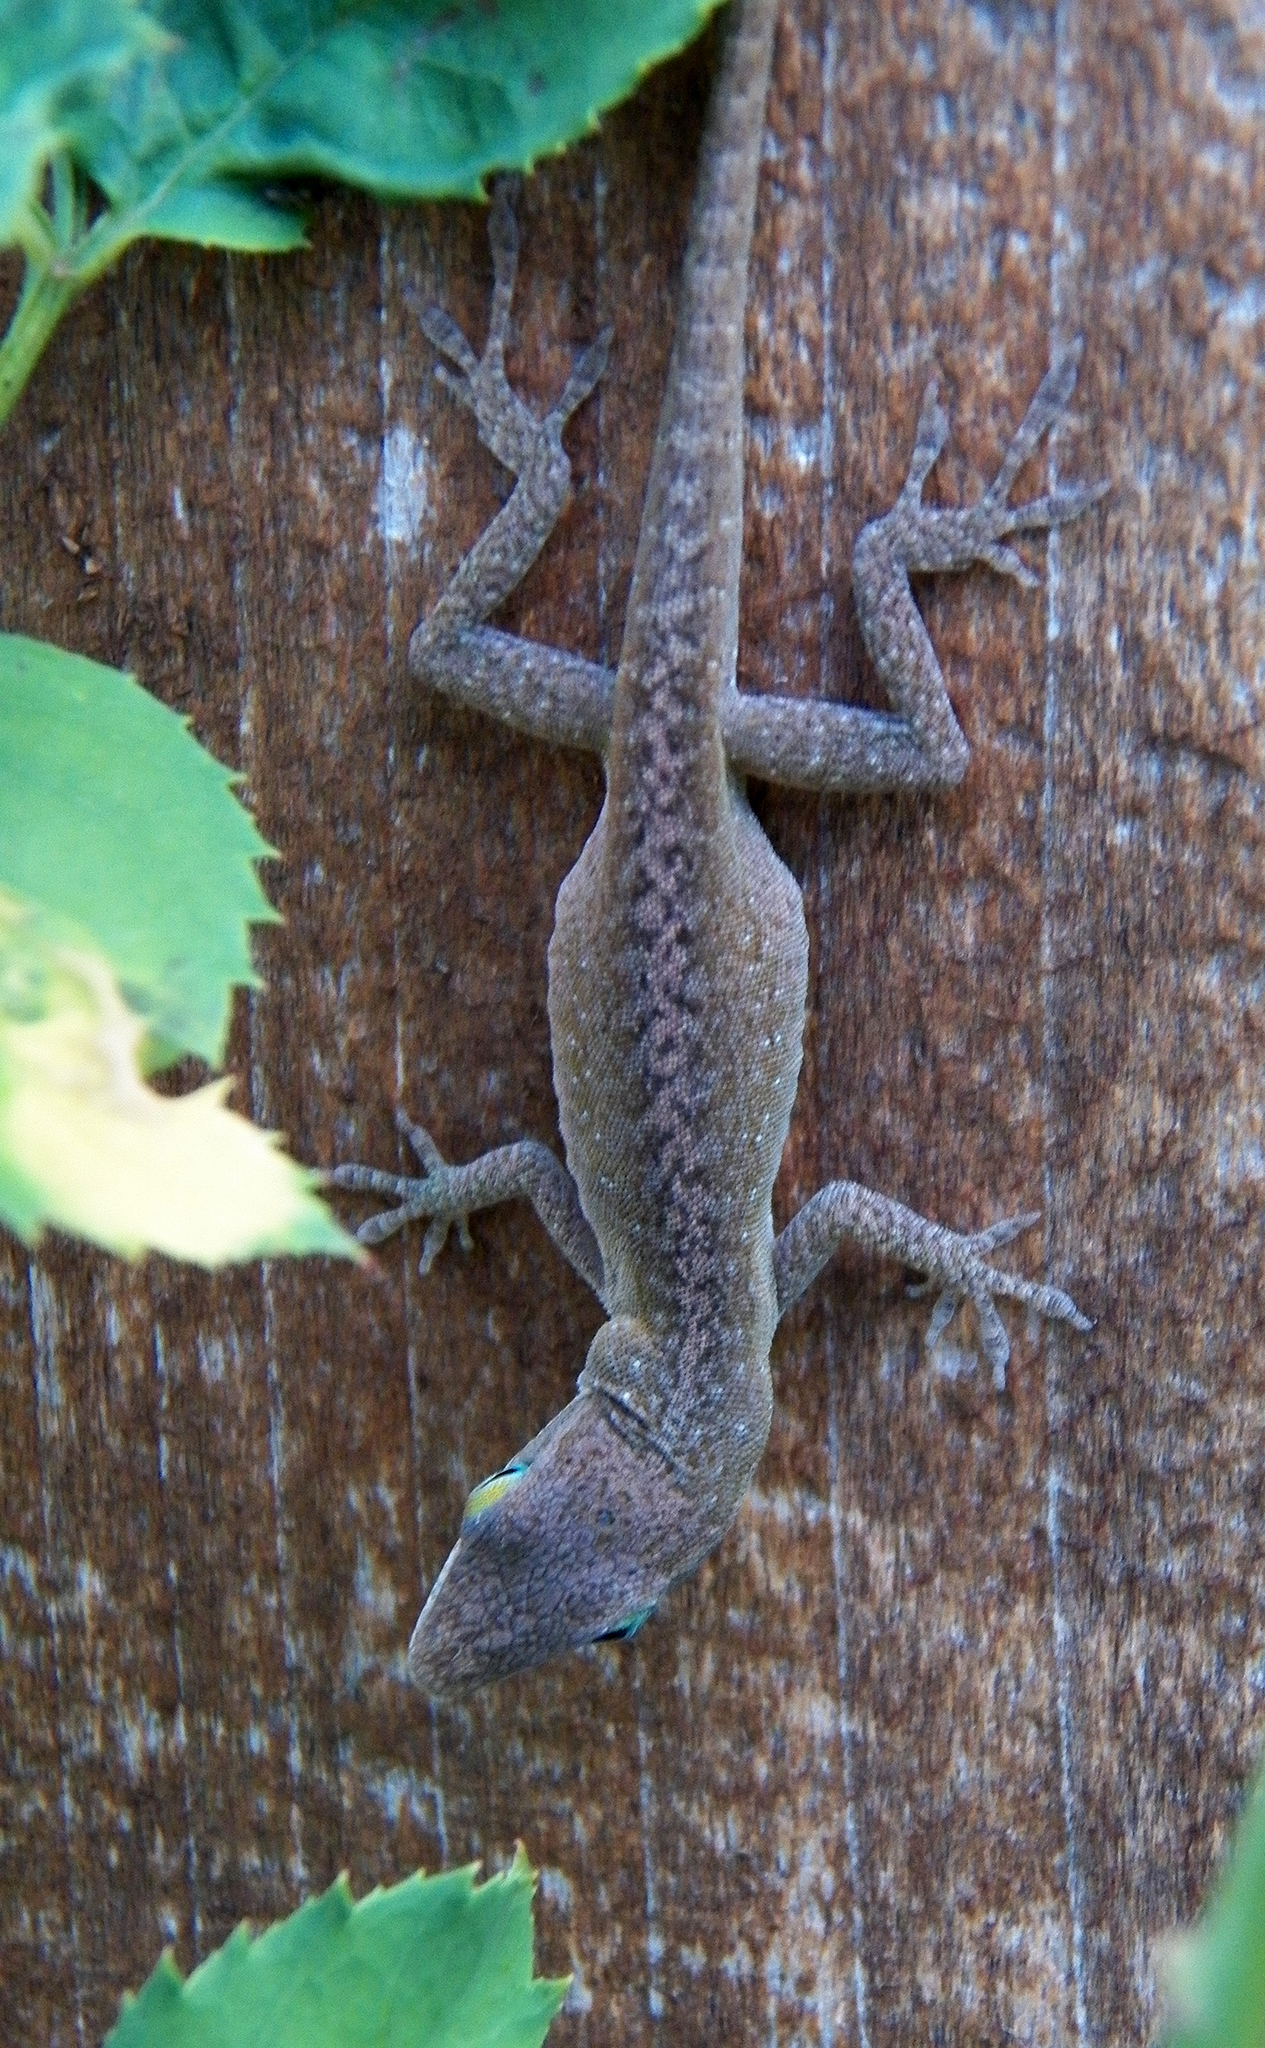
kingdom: Animalia
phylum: Chordata
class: Squamata
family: Dactyloidae
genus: Anolis
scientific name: Anolis carolinensis
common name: Green anole
